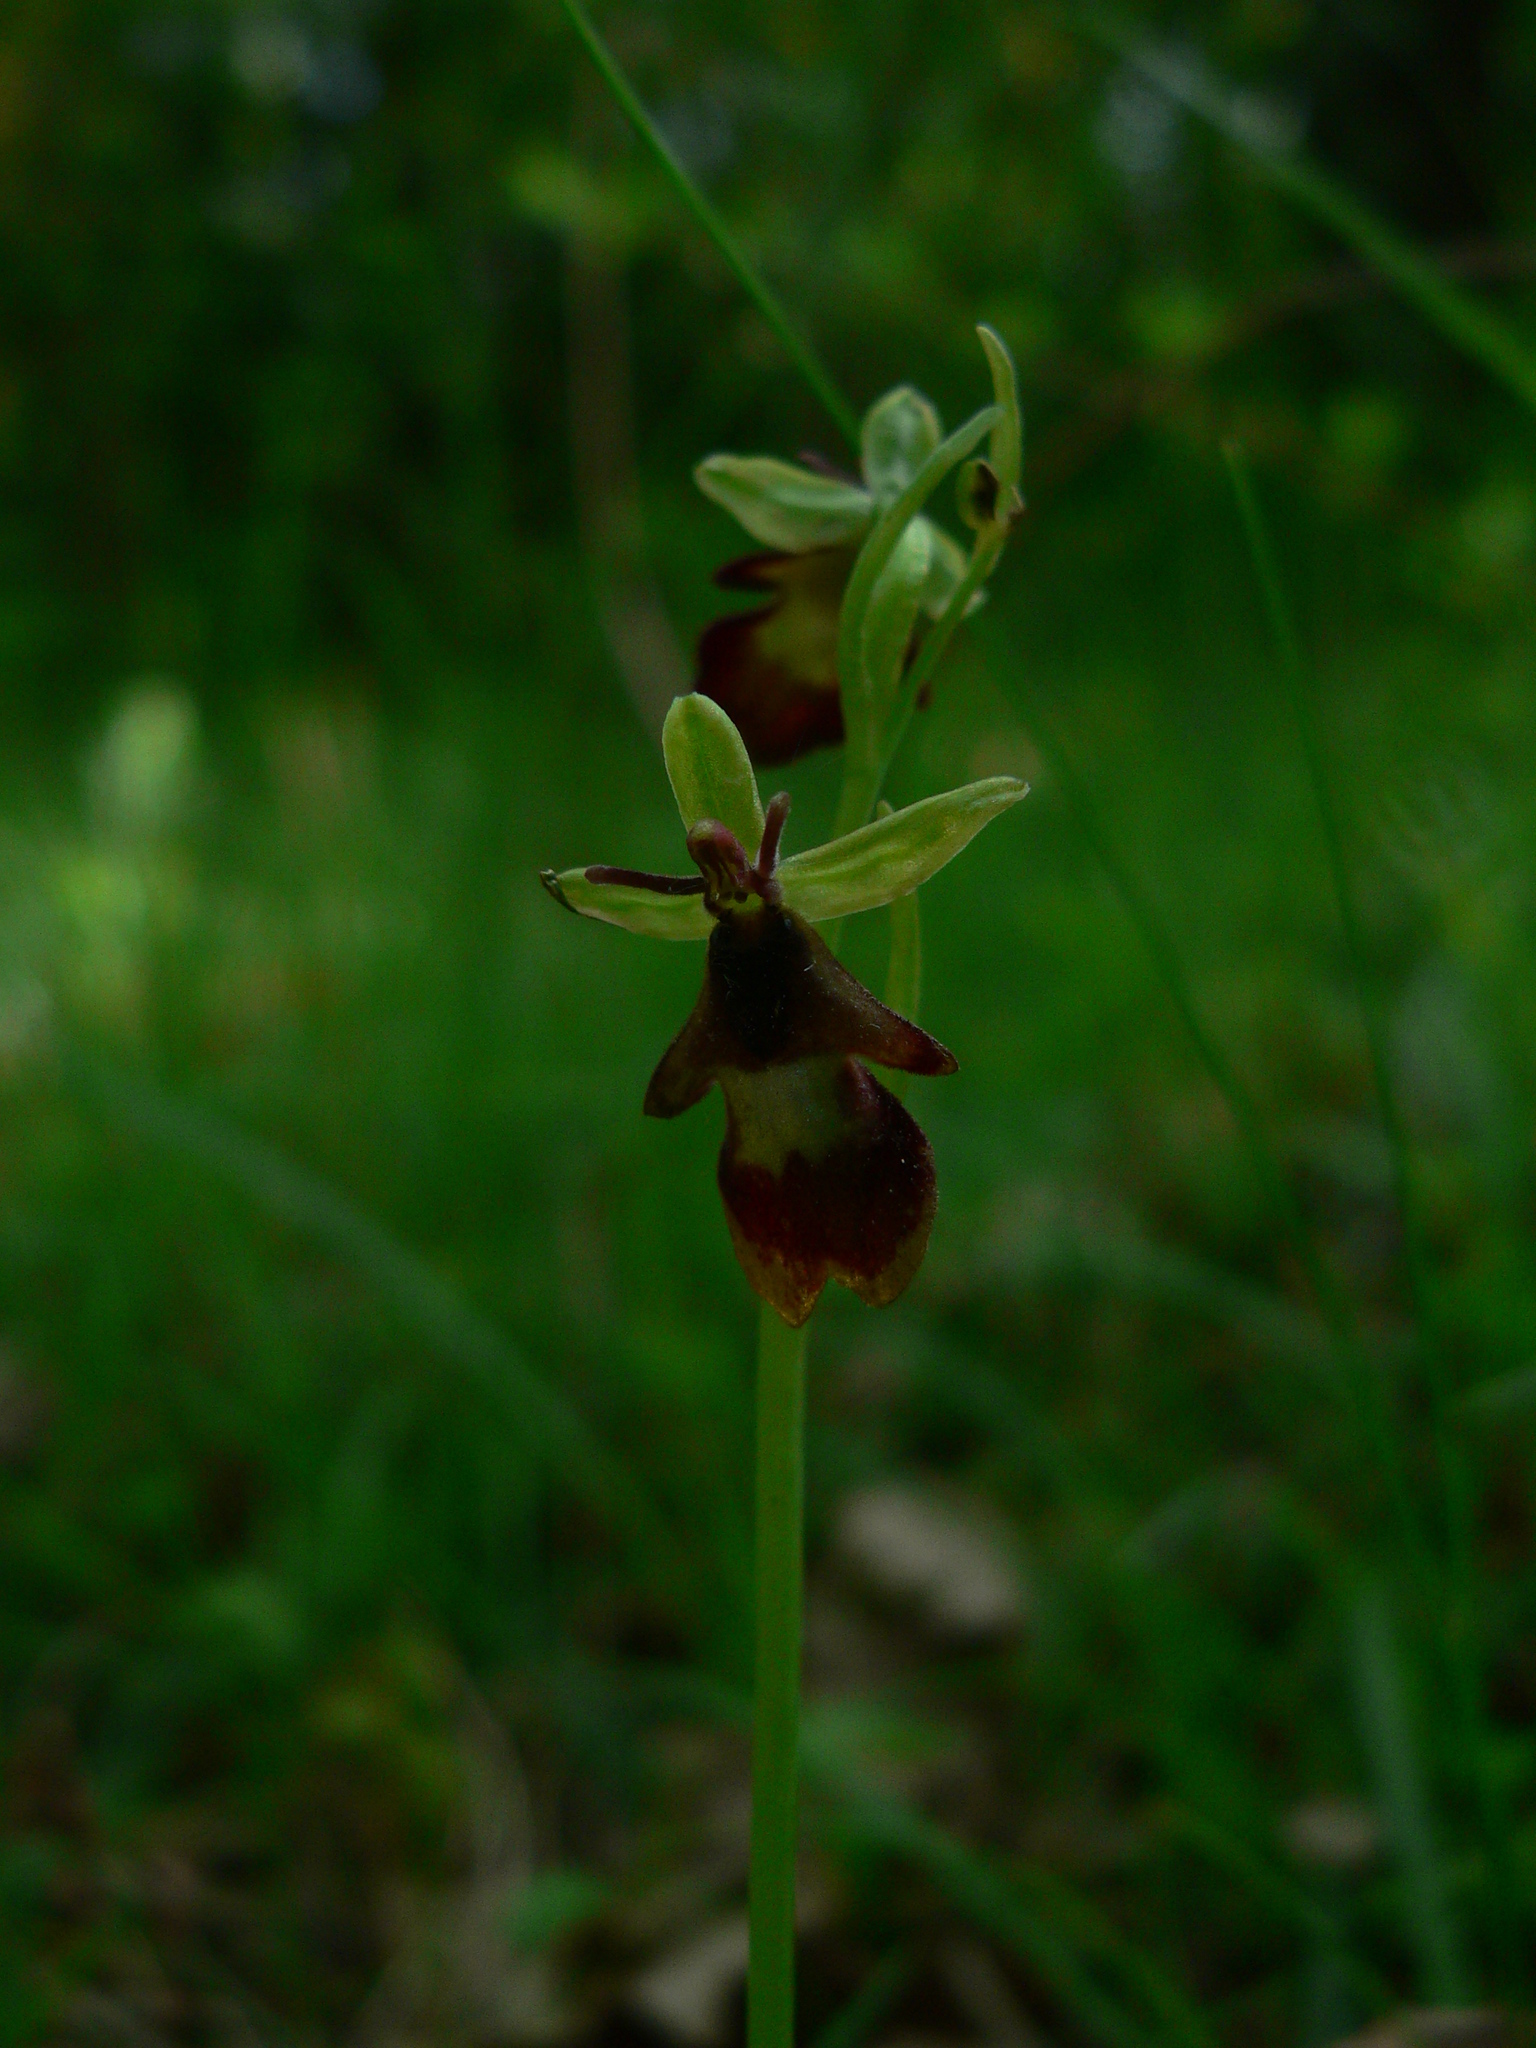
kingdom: Plantae
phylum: Tracheophyta
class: Liliopsida
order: Asparagales
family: Orchidaceae
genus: Ophrys
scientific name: Ophrys insectifera
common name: Fly orchid
